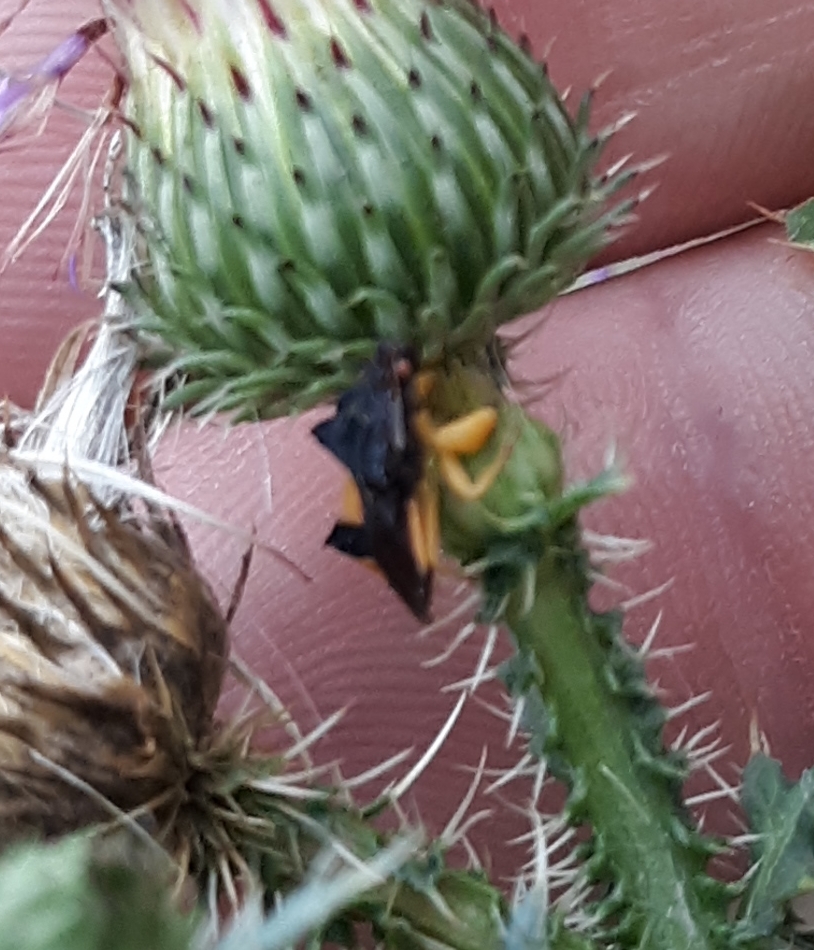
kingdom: Animalia
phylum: Arthropoda
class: Insecta
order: Hemiptera
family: Reduviidae
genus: Phymata
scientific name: Phymata pennsylvanica
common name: Pennsylvania ambush bug
